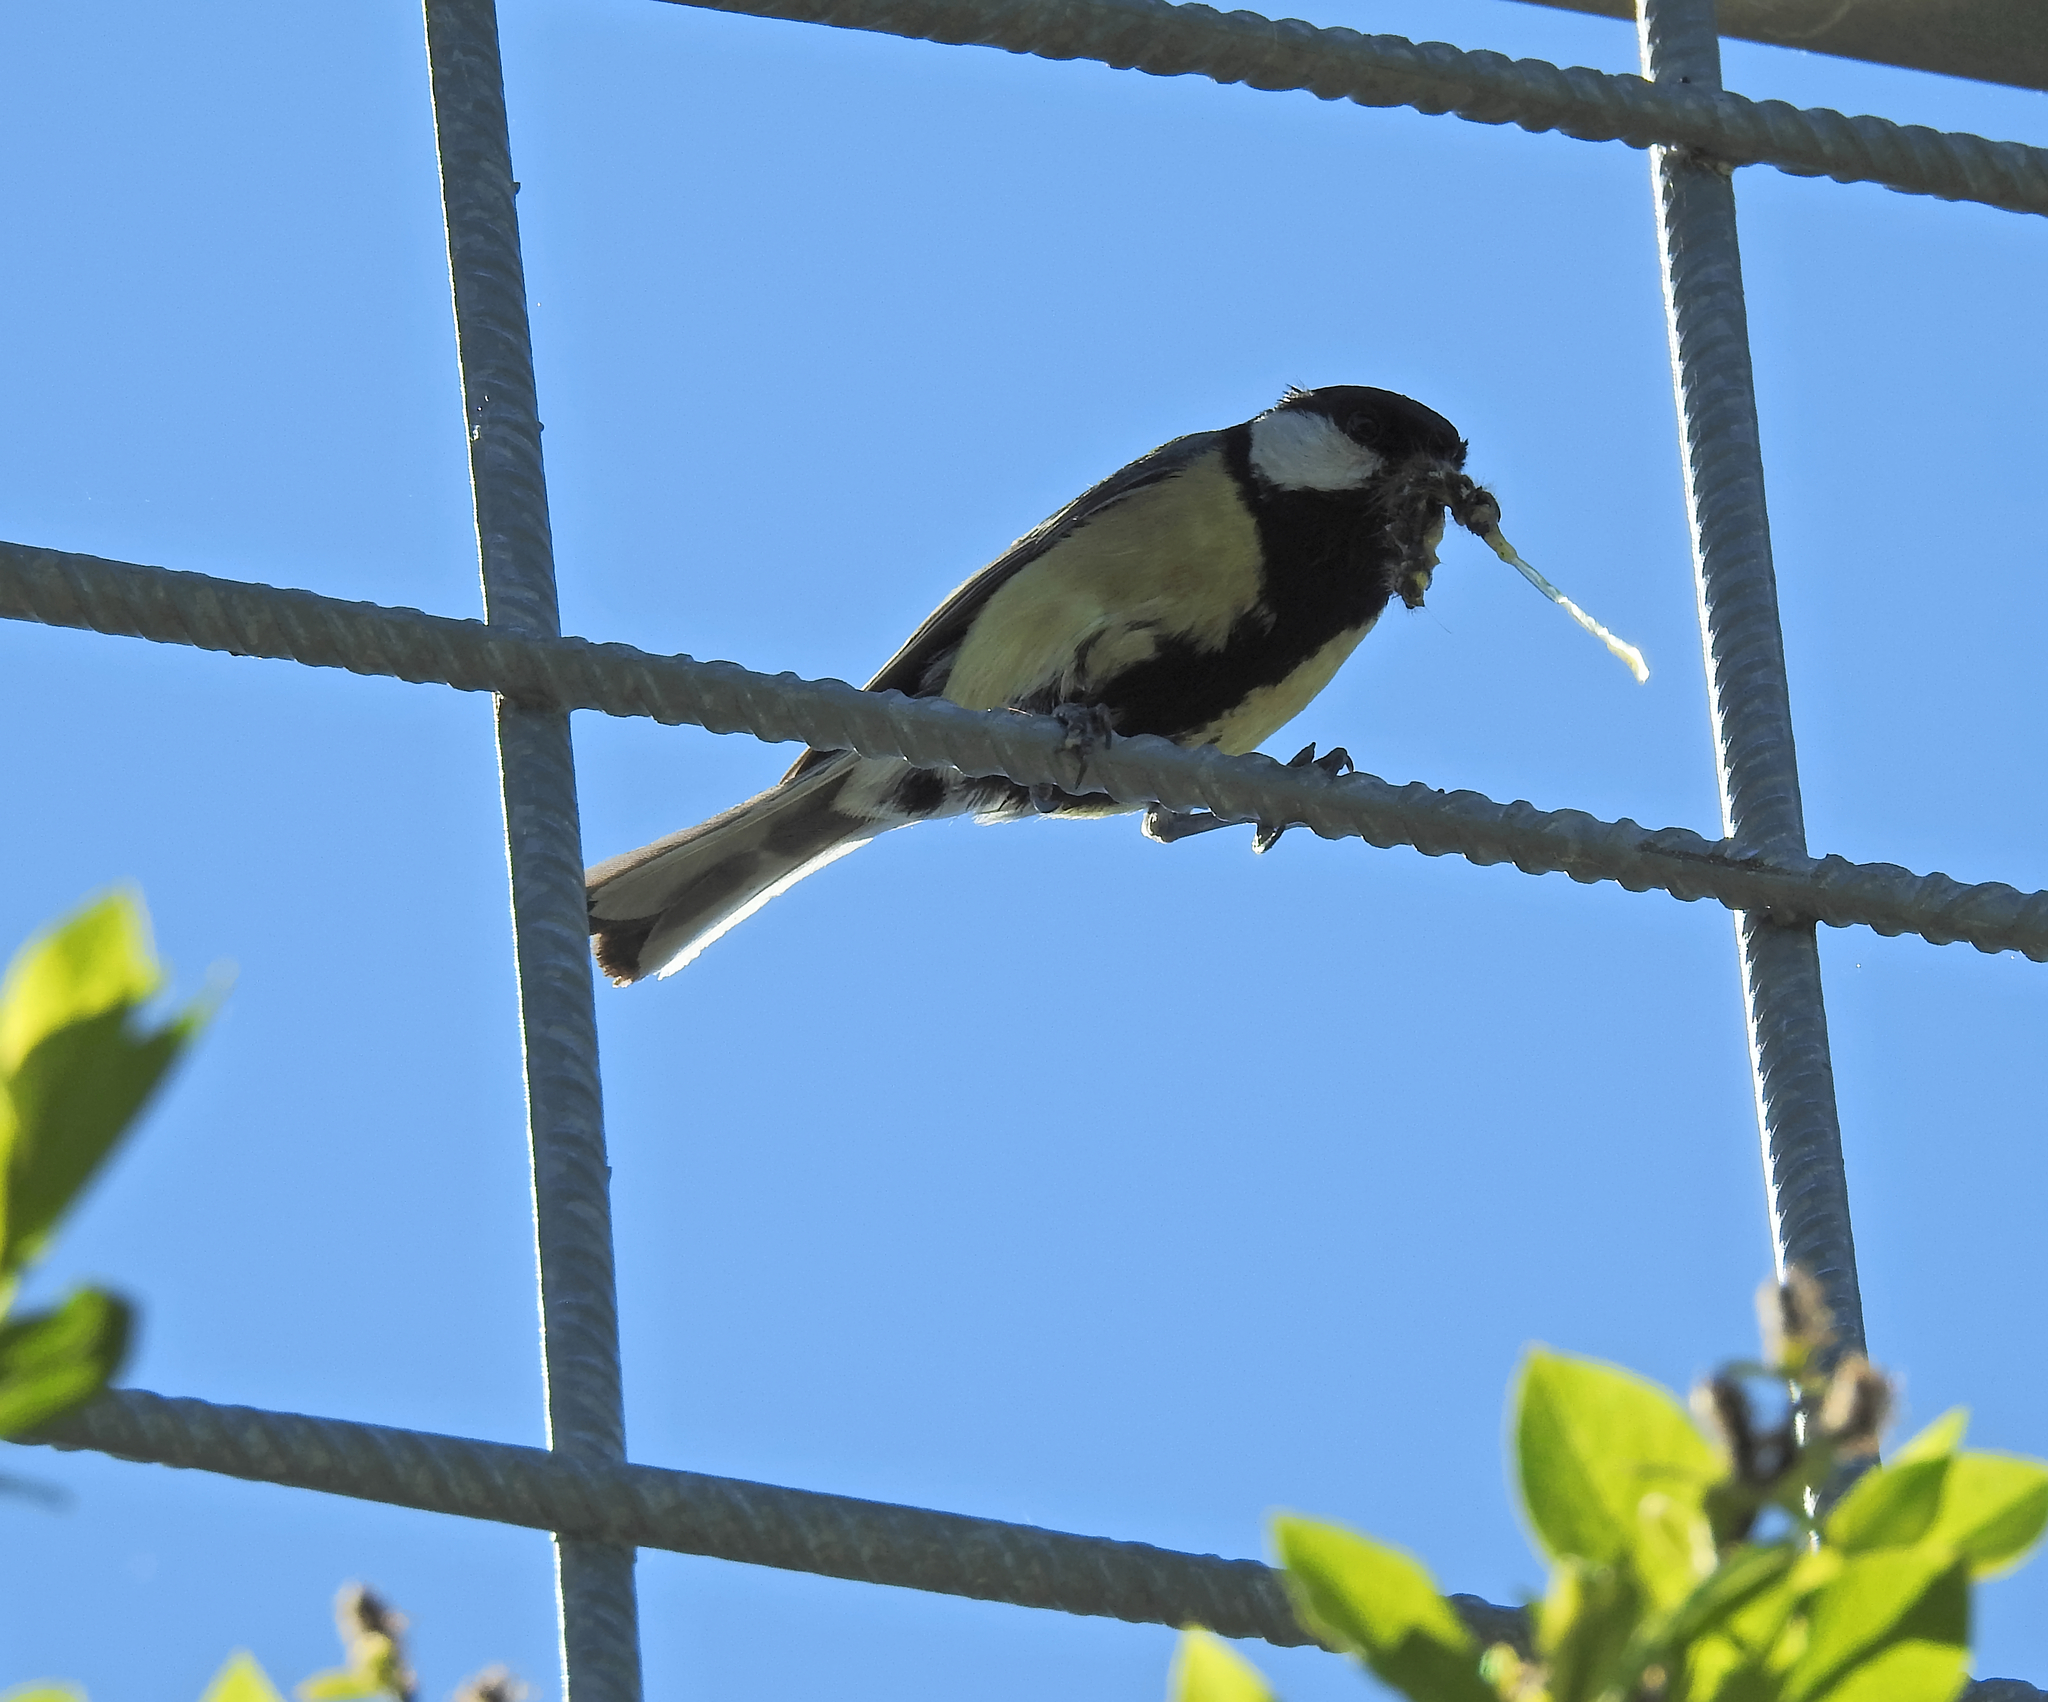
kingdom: Animalia
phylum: Chordata
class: Aves
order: Passeriformes
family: Paridae
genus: Parus
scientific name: Parus major
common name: Great tit
